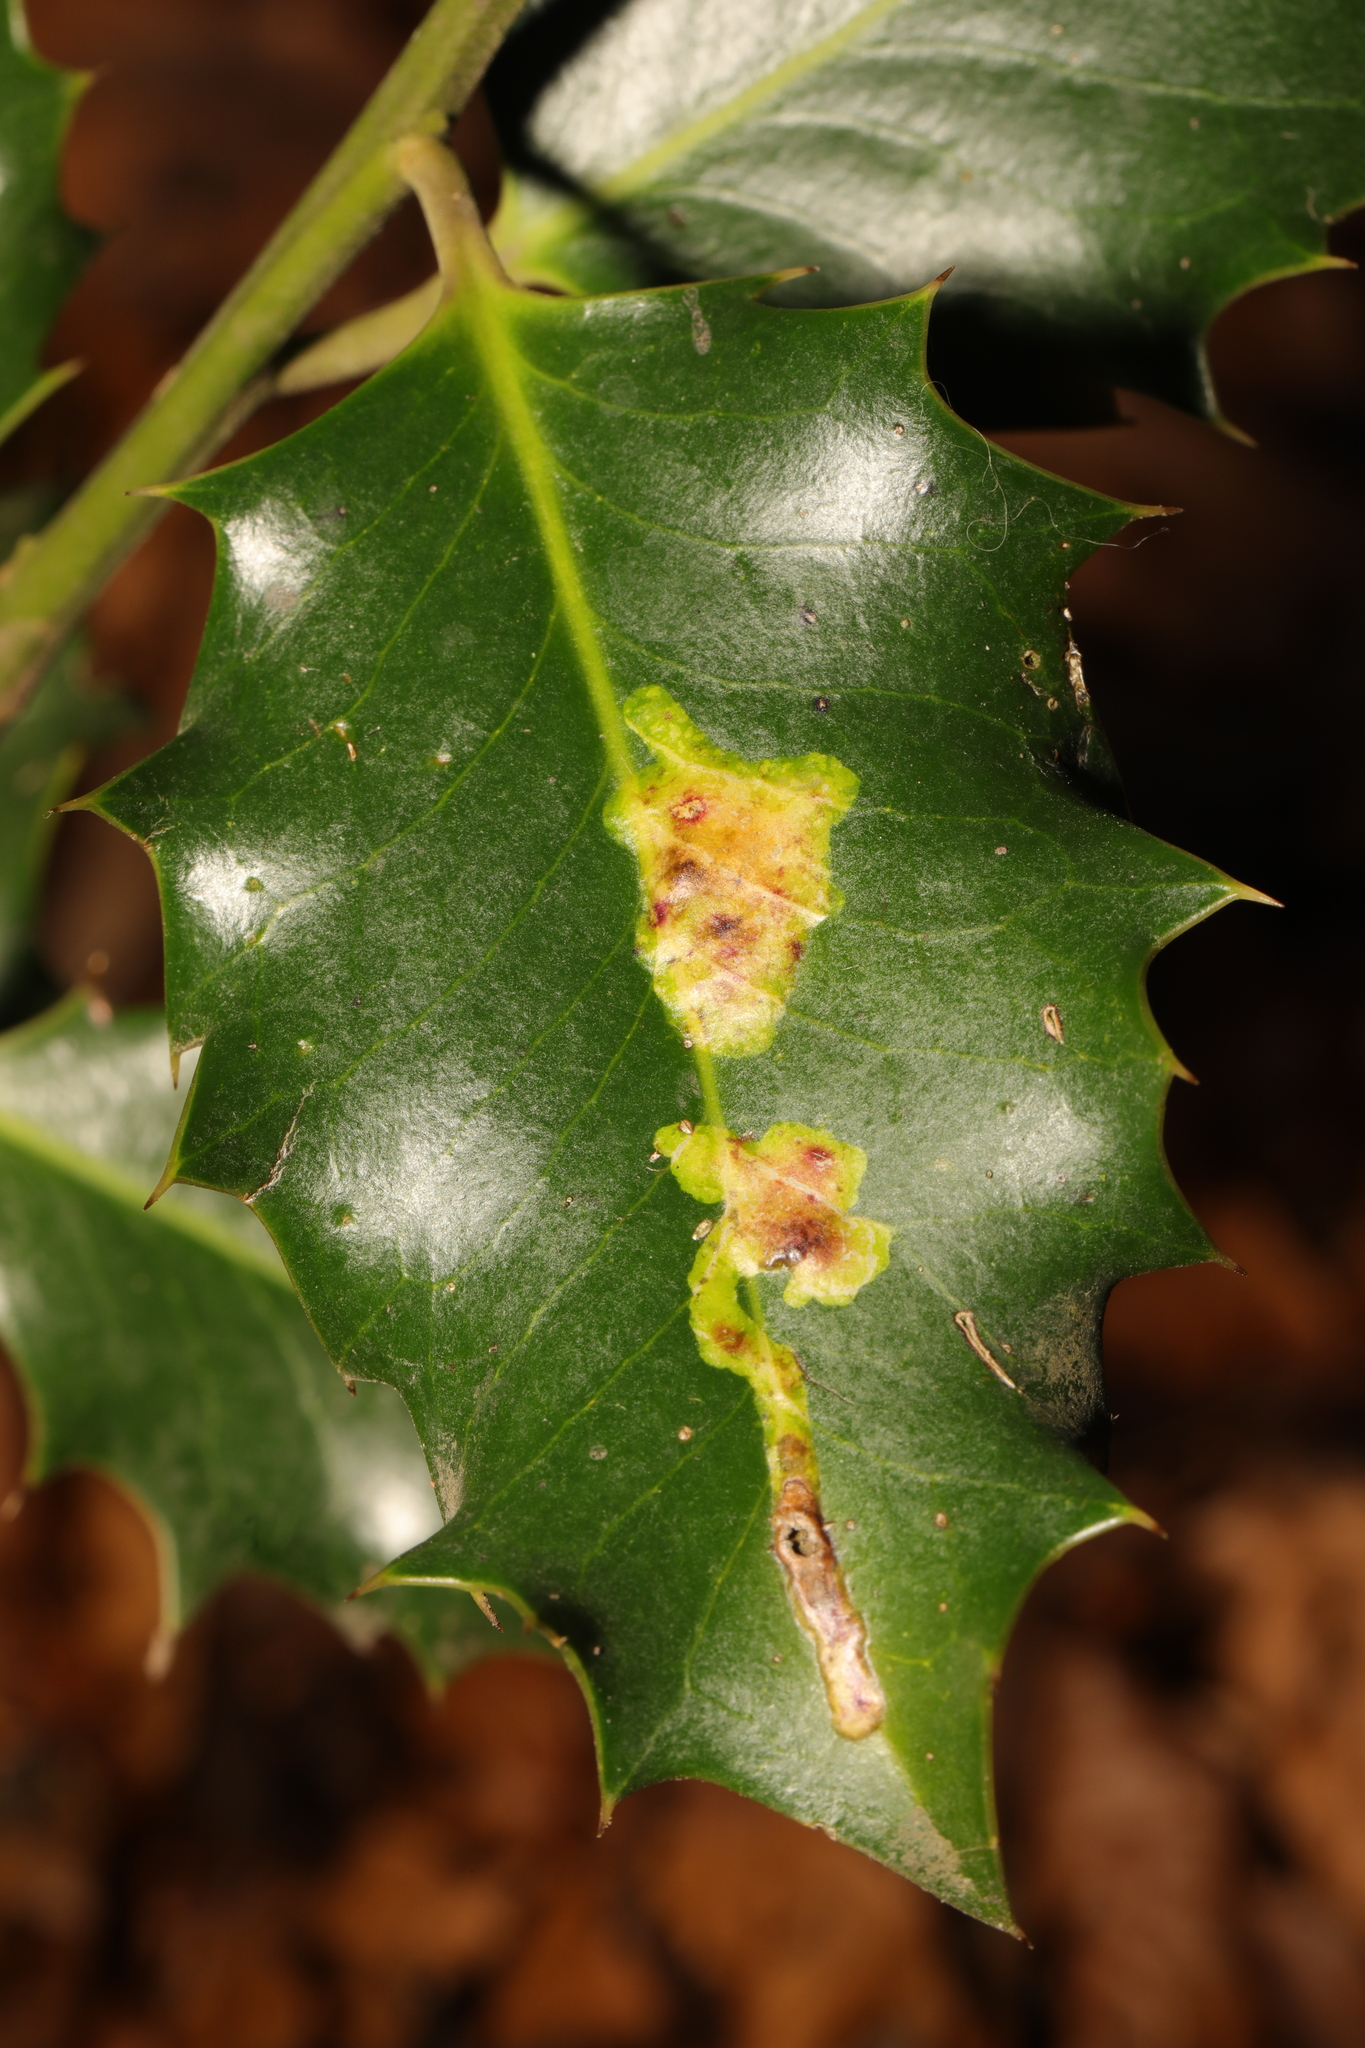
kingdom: Animalia
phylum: Arthropoda
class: Insecta
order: Diptera
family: Agromyzidae
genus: Phytomyza
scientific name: Phytomyza ilicis
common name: Holly leafminer
